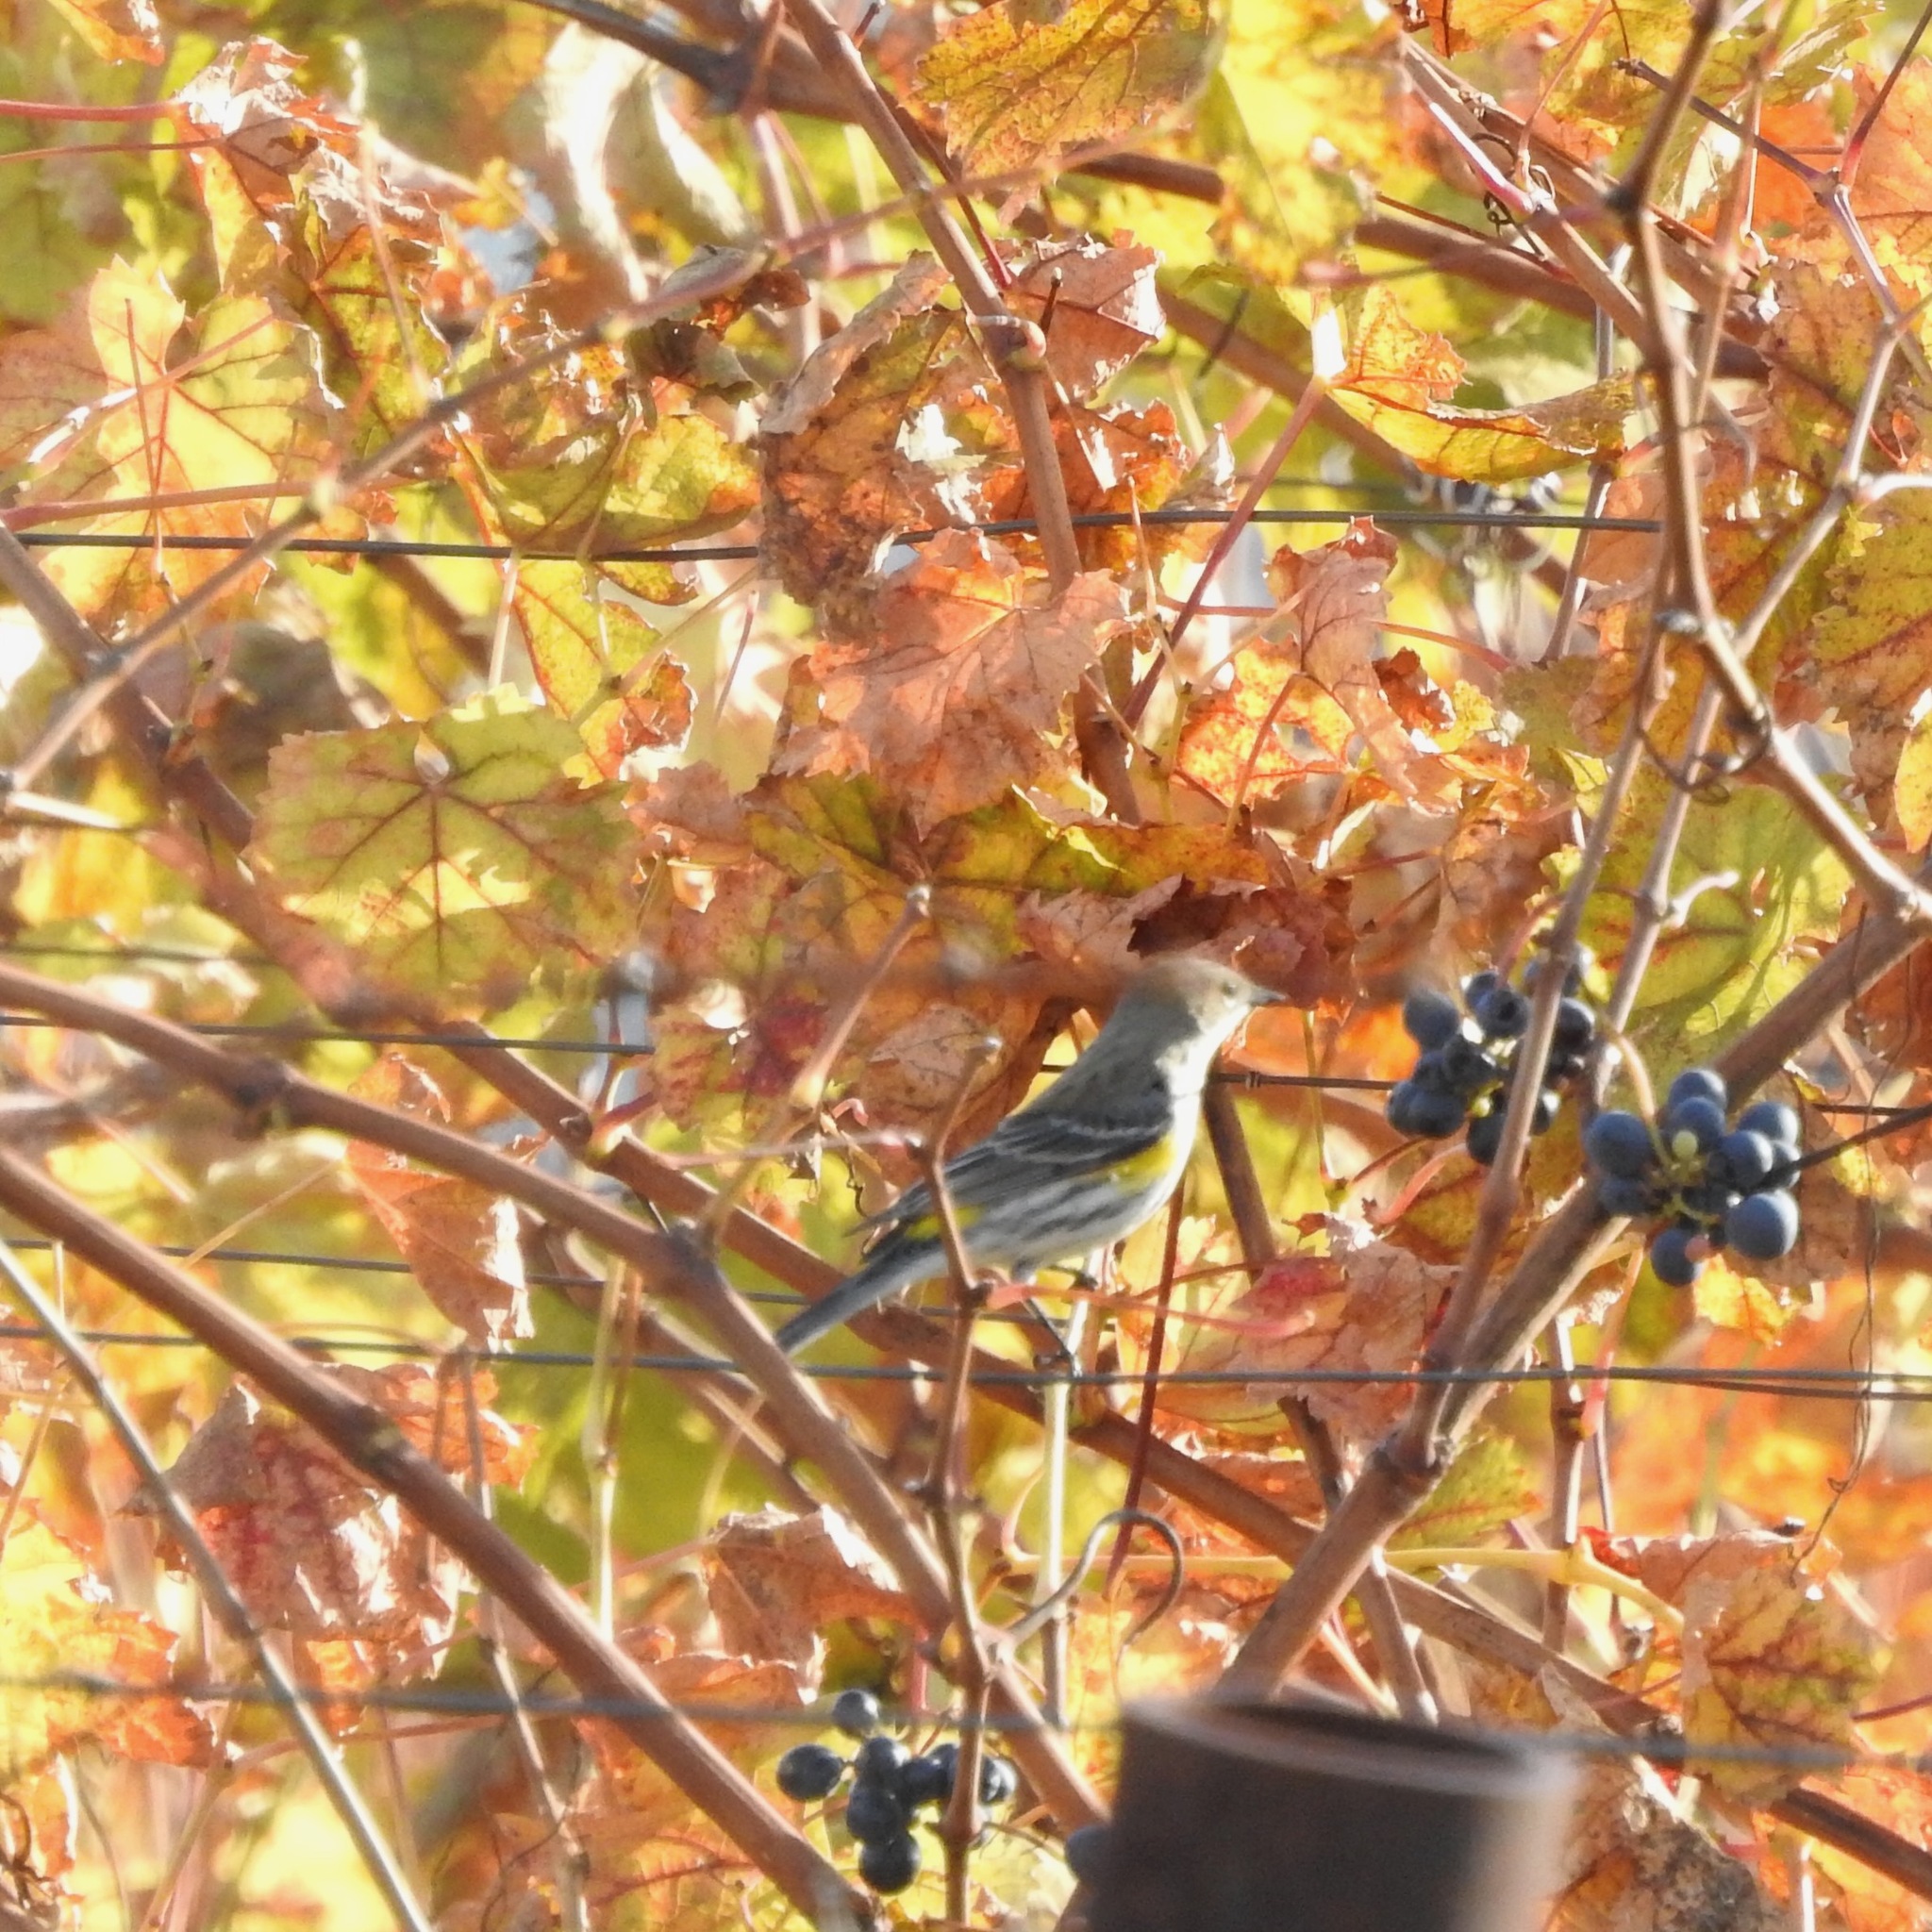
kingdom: Animalia
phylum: Chordata
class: Aves
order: Passeriformes
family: Parulidae
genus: Setophaga
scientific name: Setophaga coronata
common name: Myrtle warbler
